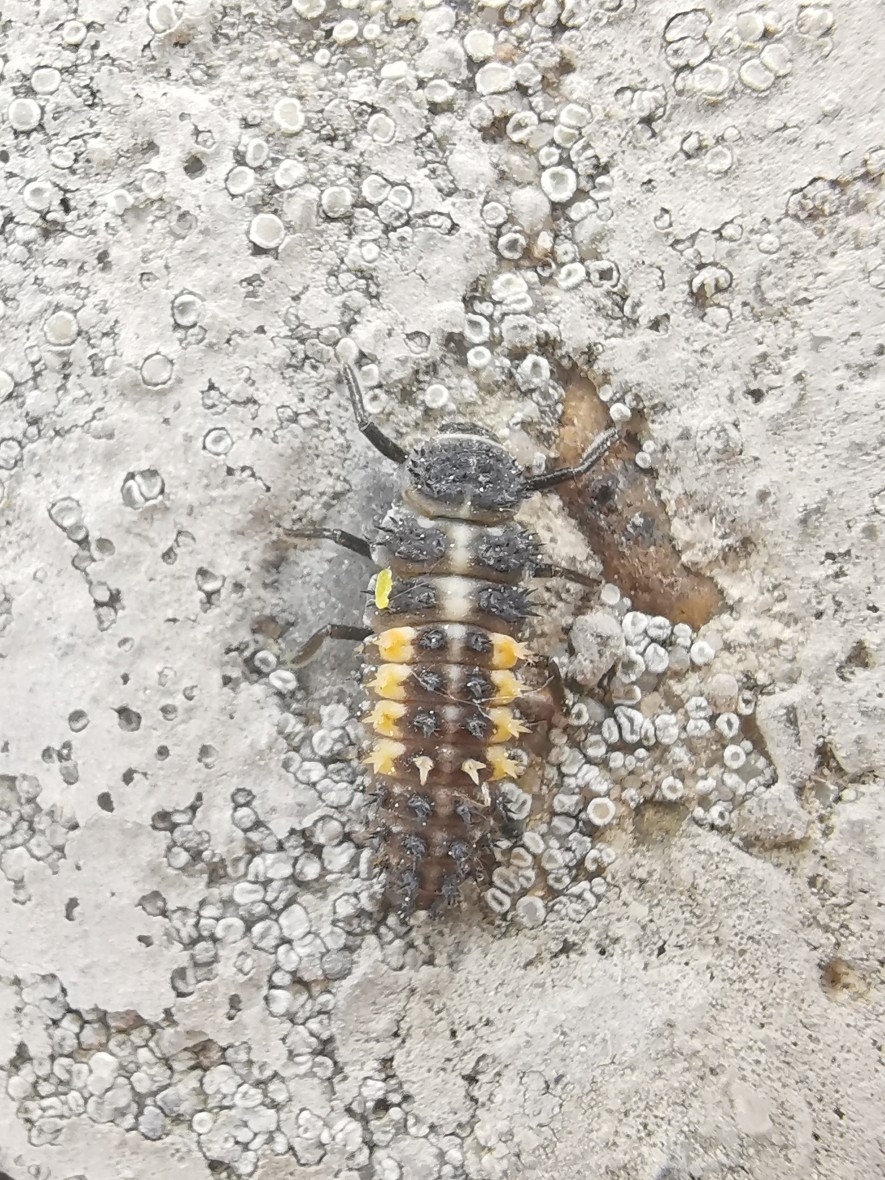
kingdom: Animalia
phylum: Arthropoda
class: Insecta
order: Coleoptera
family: Coccinellidae
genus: Harmonia
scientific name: Harmonia axyridis
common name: Harlequin ladybird
